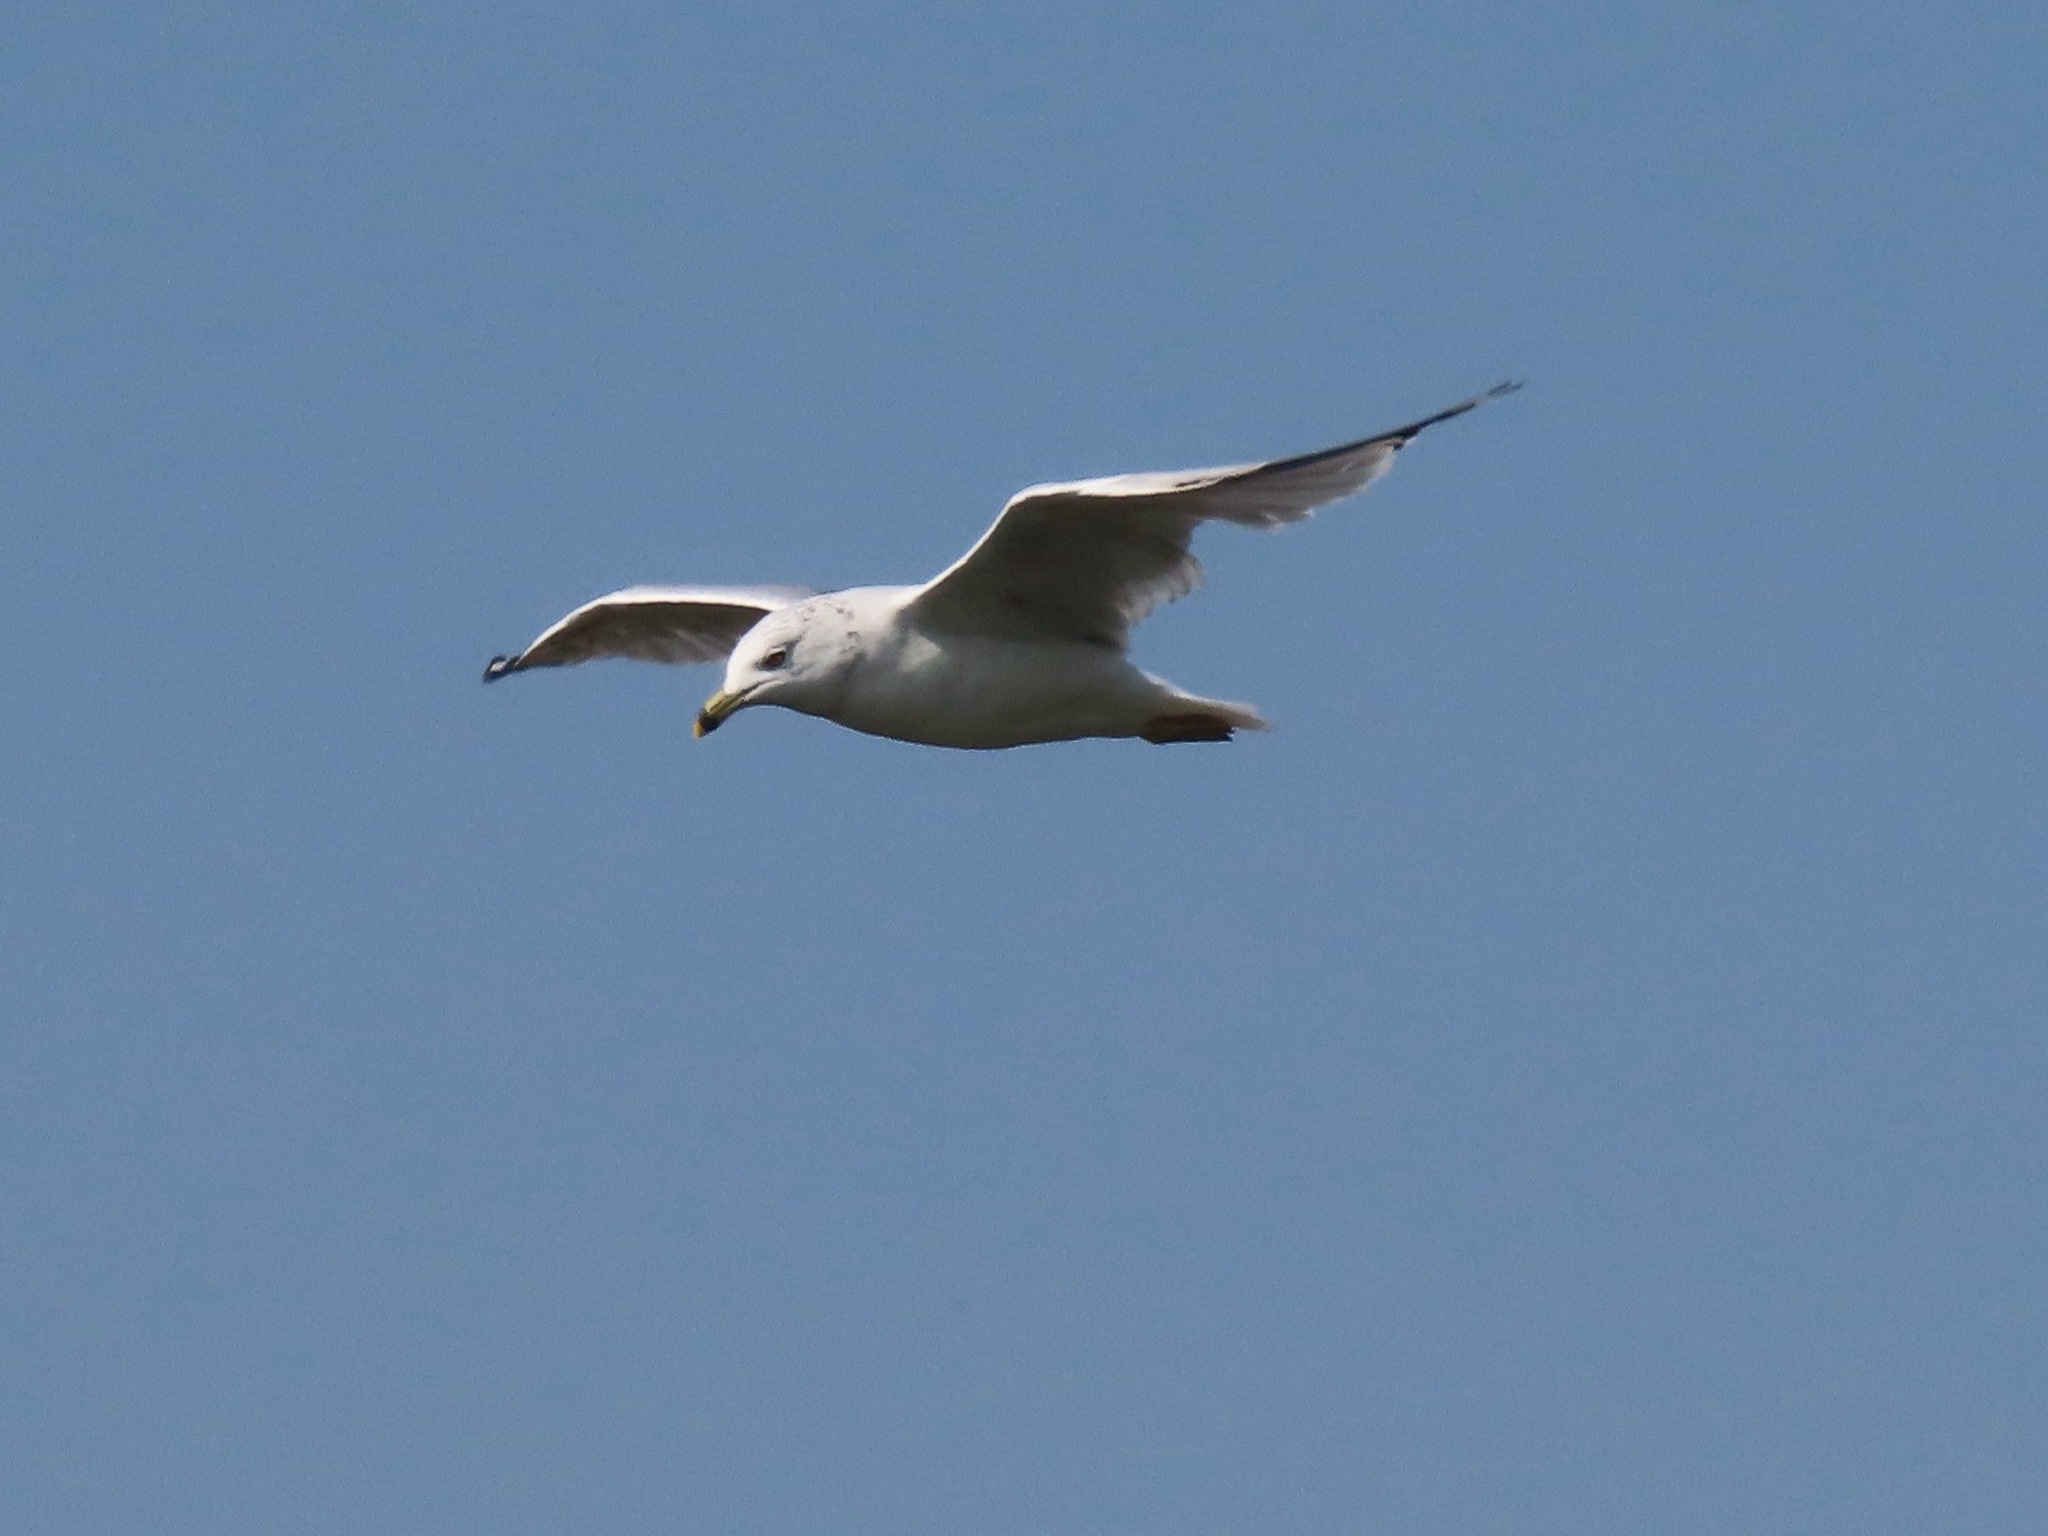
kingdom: Animalia
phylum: Chordata
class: Aves
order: Charadriiformes
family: Laridae
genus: Larus
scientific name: Larus delawarensis
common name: Ring-billed gull
